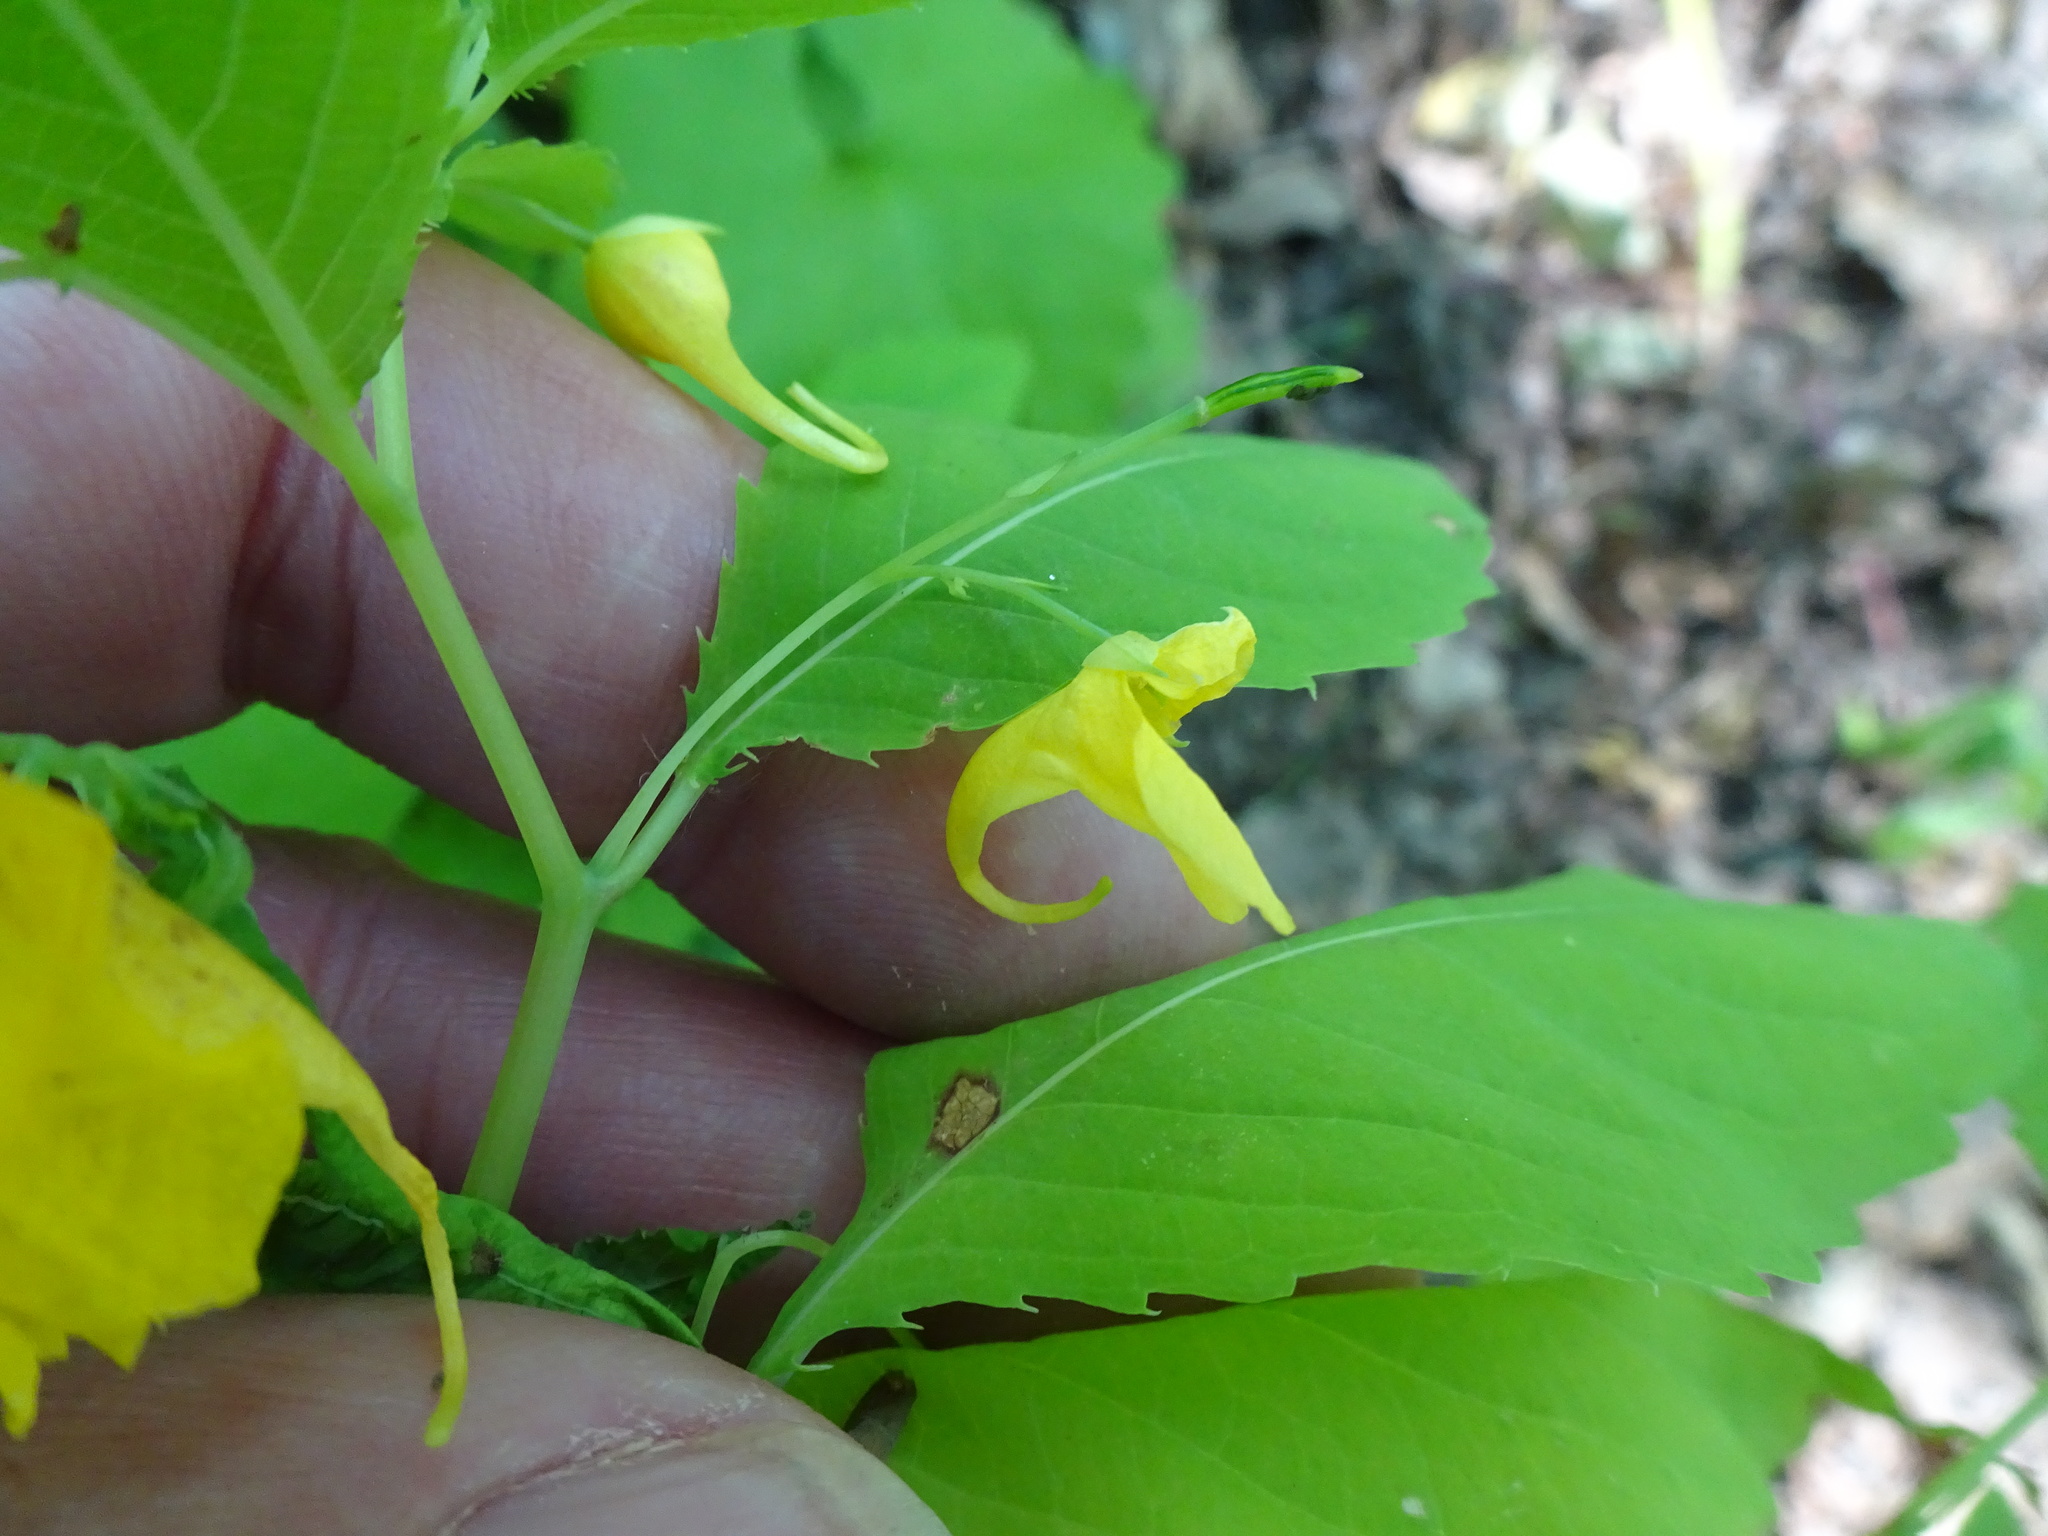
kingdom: Plantae
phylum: Tracheophyta
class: Magnoliopsida
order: Ericales
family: Balsaminaceae
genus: Impatiens
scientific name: Impatiens noli-tangere
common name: Touch-me-not balsam
